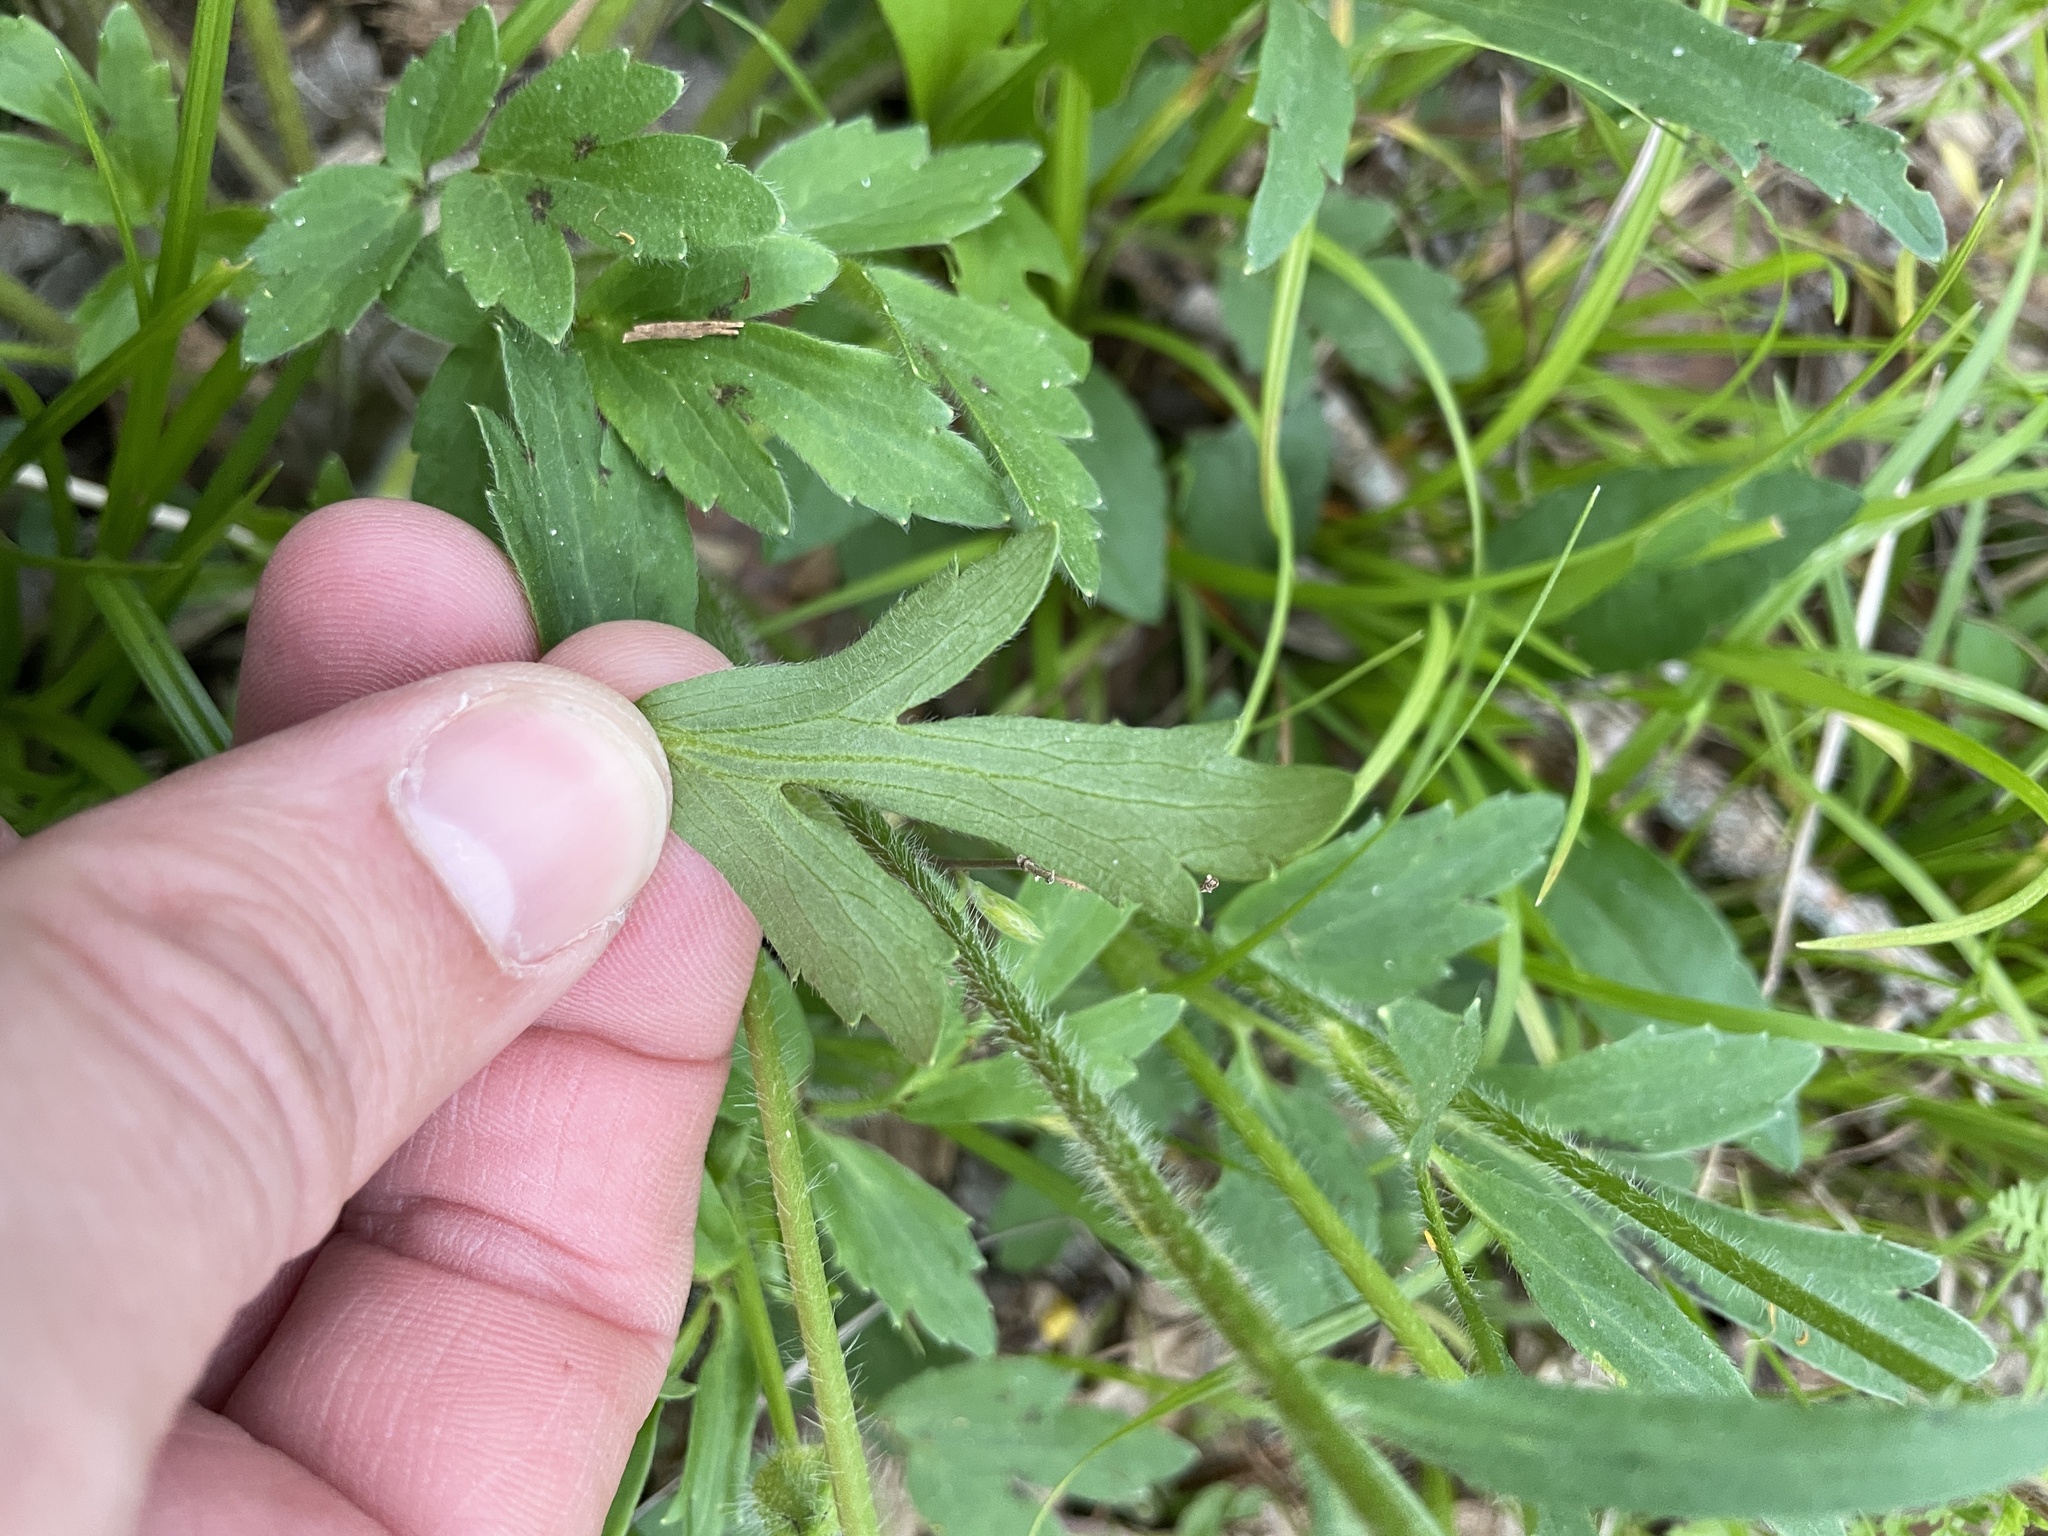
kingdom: Plantae
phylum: Tracheophyta
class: Magnoliopsida
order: Ranunculales
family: Ranunculaceae
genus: Ranunculus
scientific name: Ranunculus macranthus
